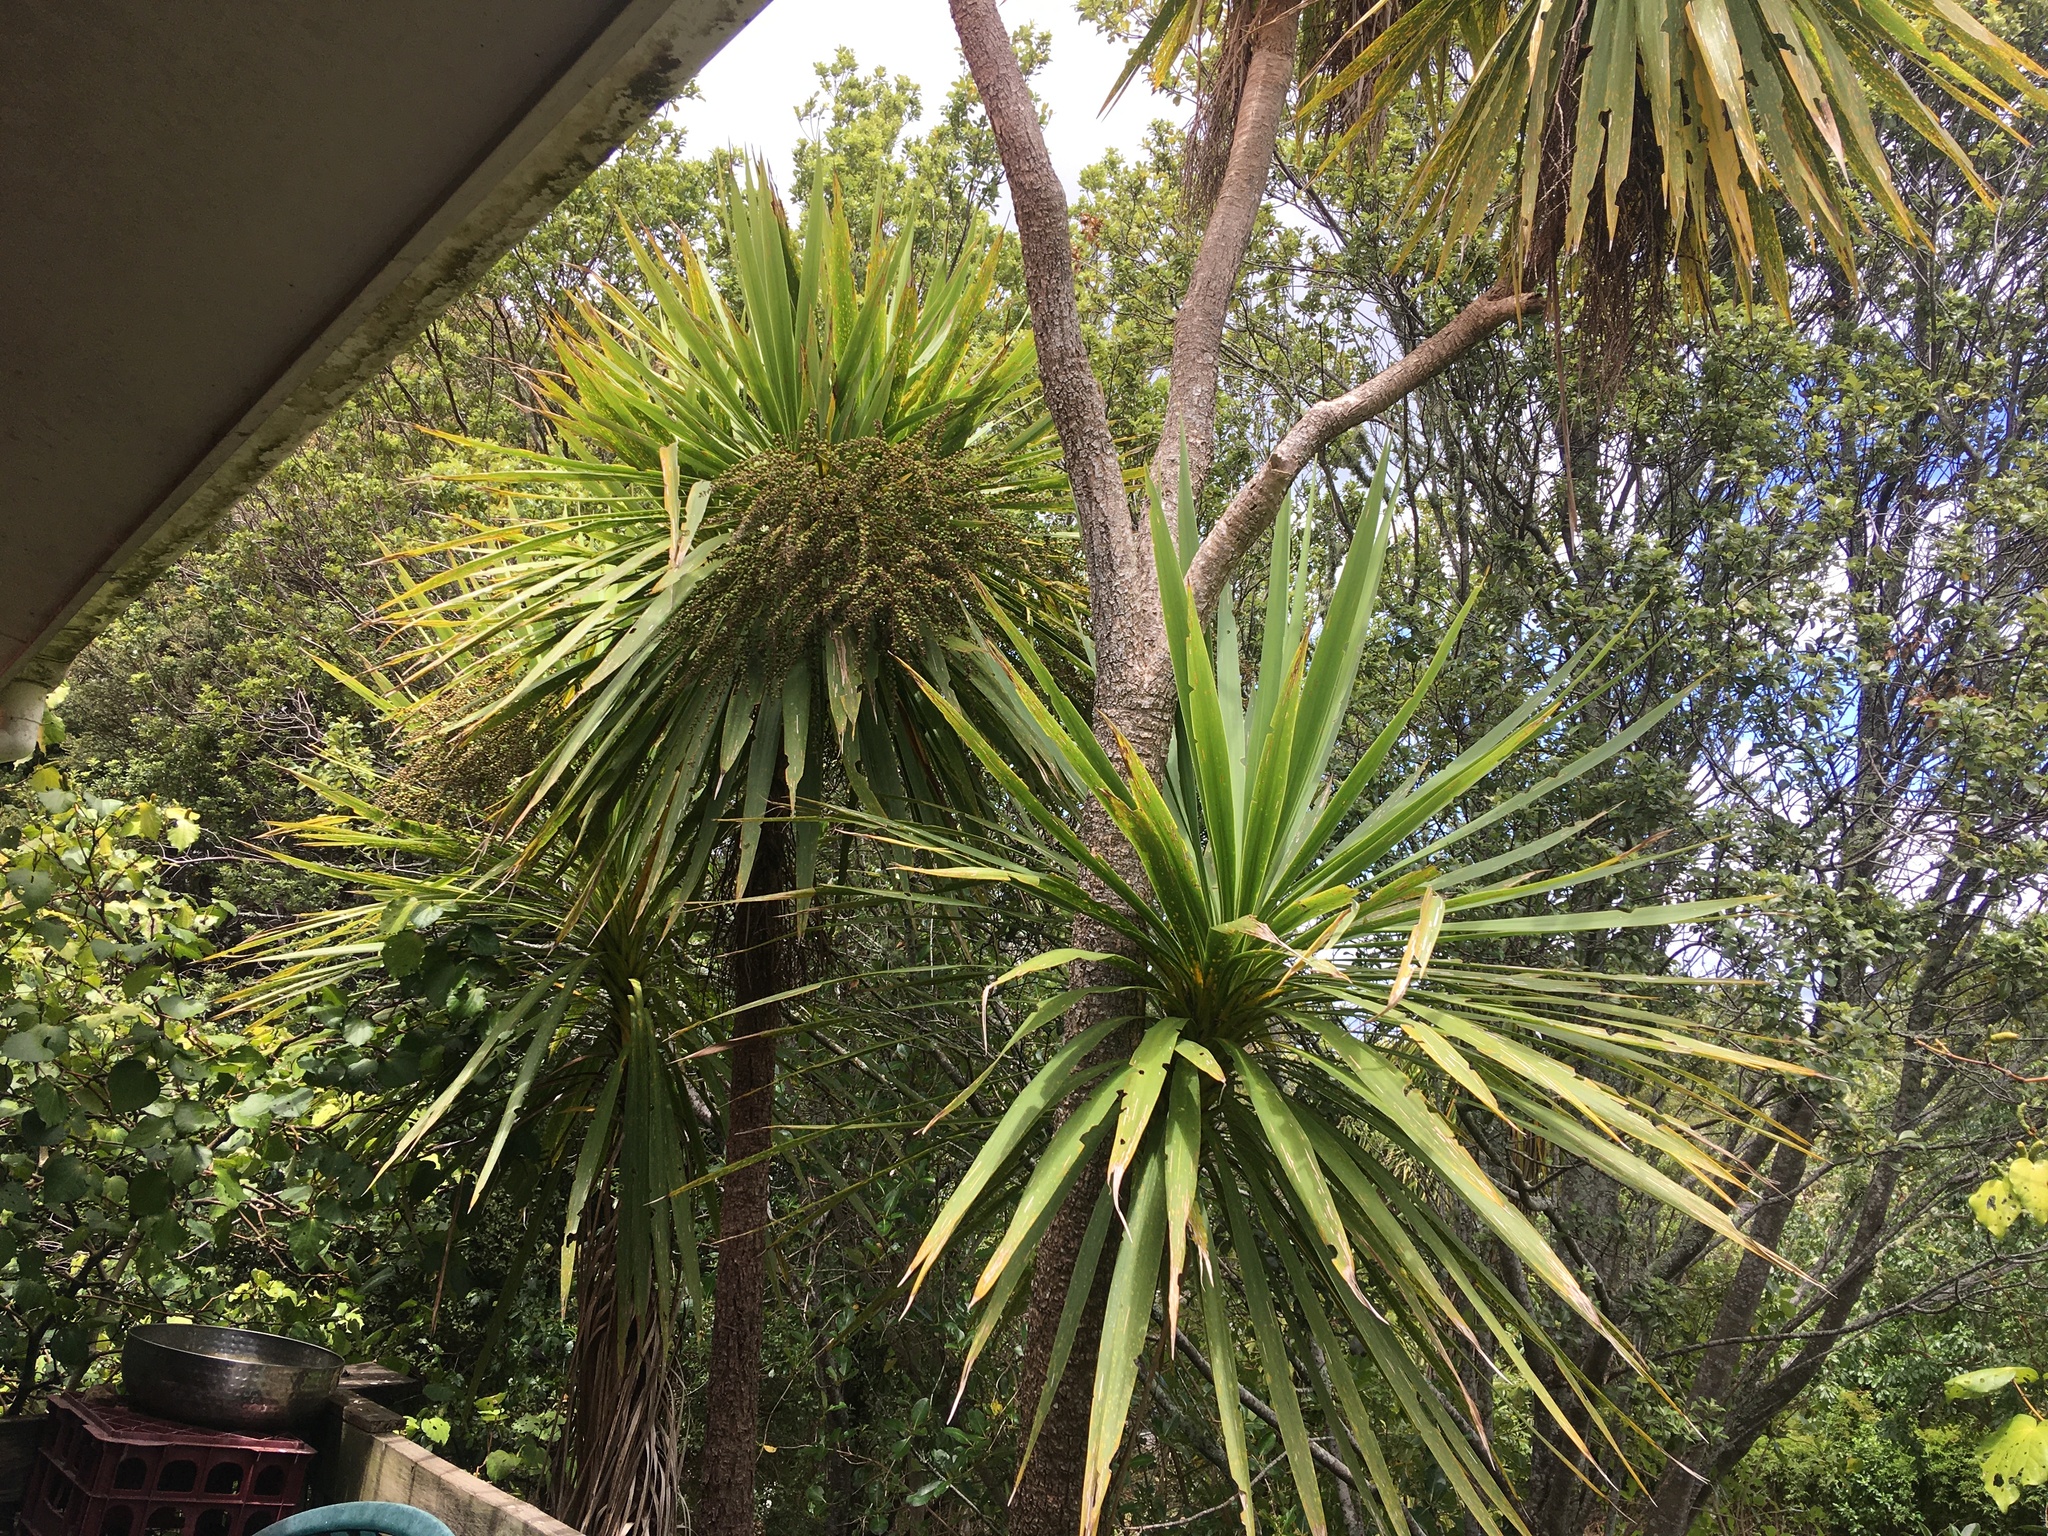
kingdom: Plantae
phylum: Tracheophyta
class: Liliopsida
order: Asparagales
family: Asparagaceae
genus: Cordyline
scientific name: Cordyline australis
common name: Cabbage-palm
